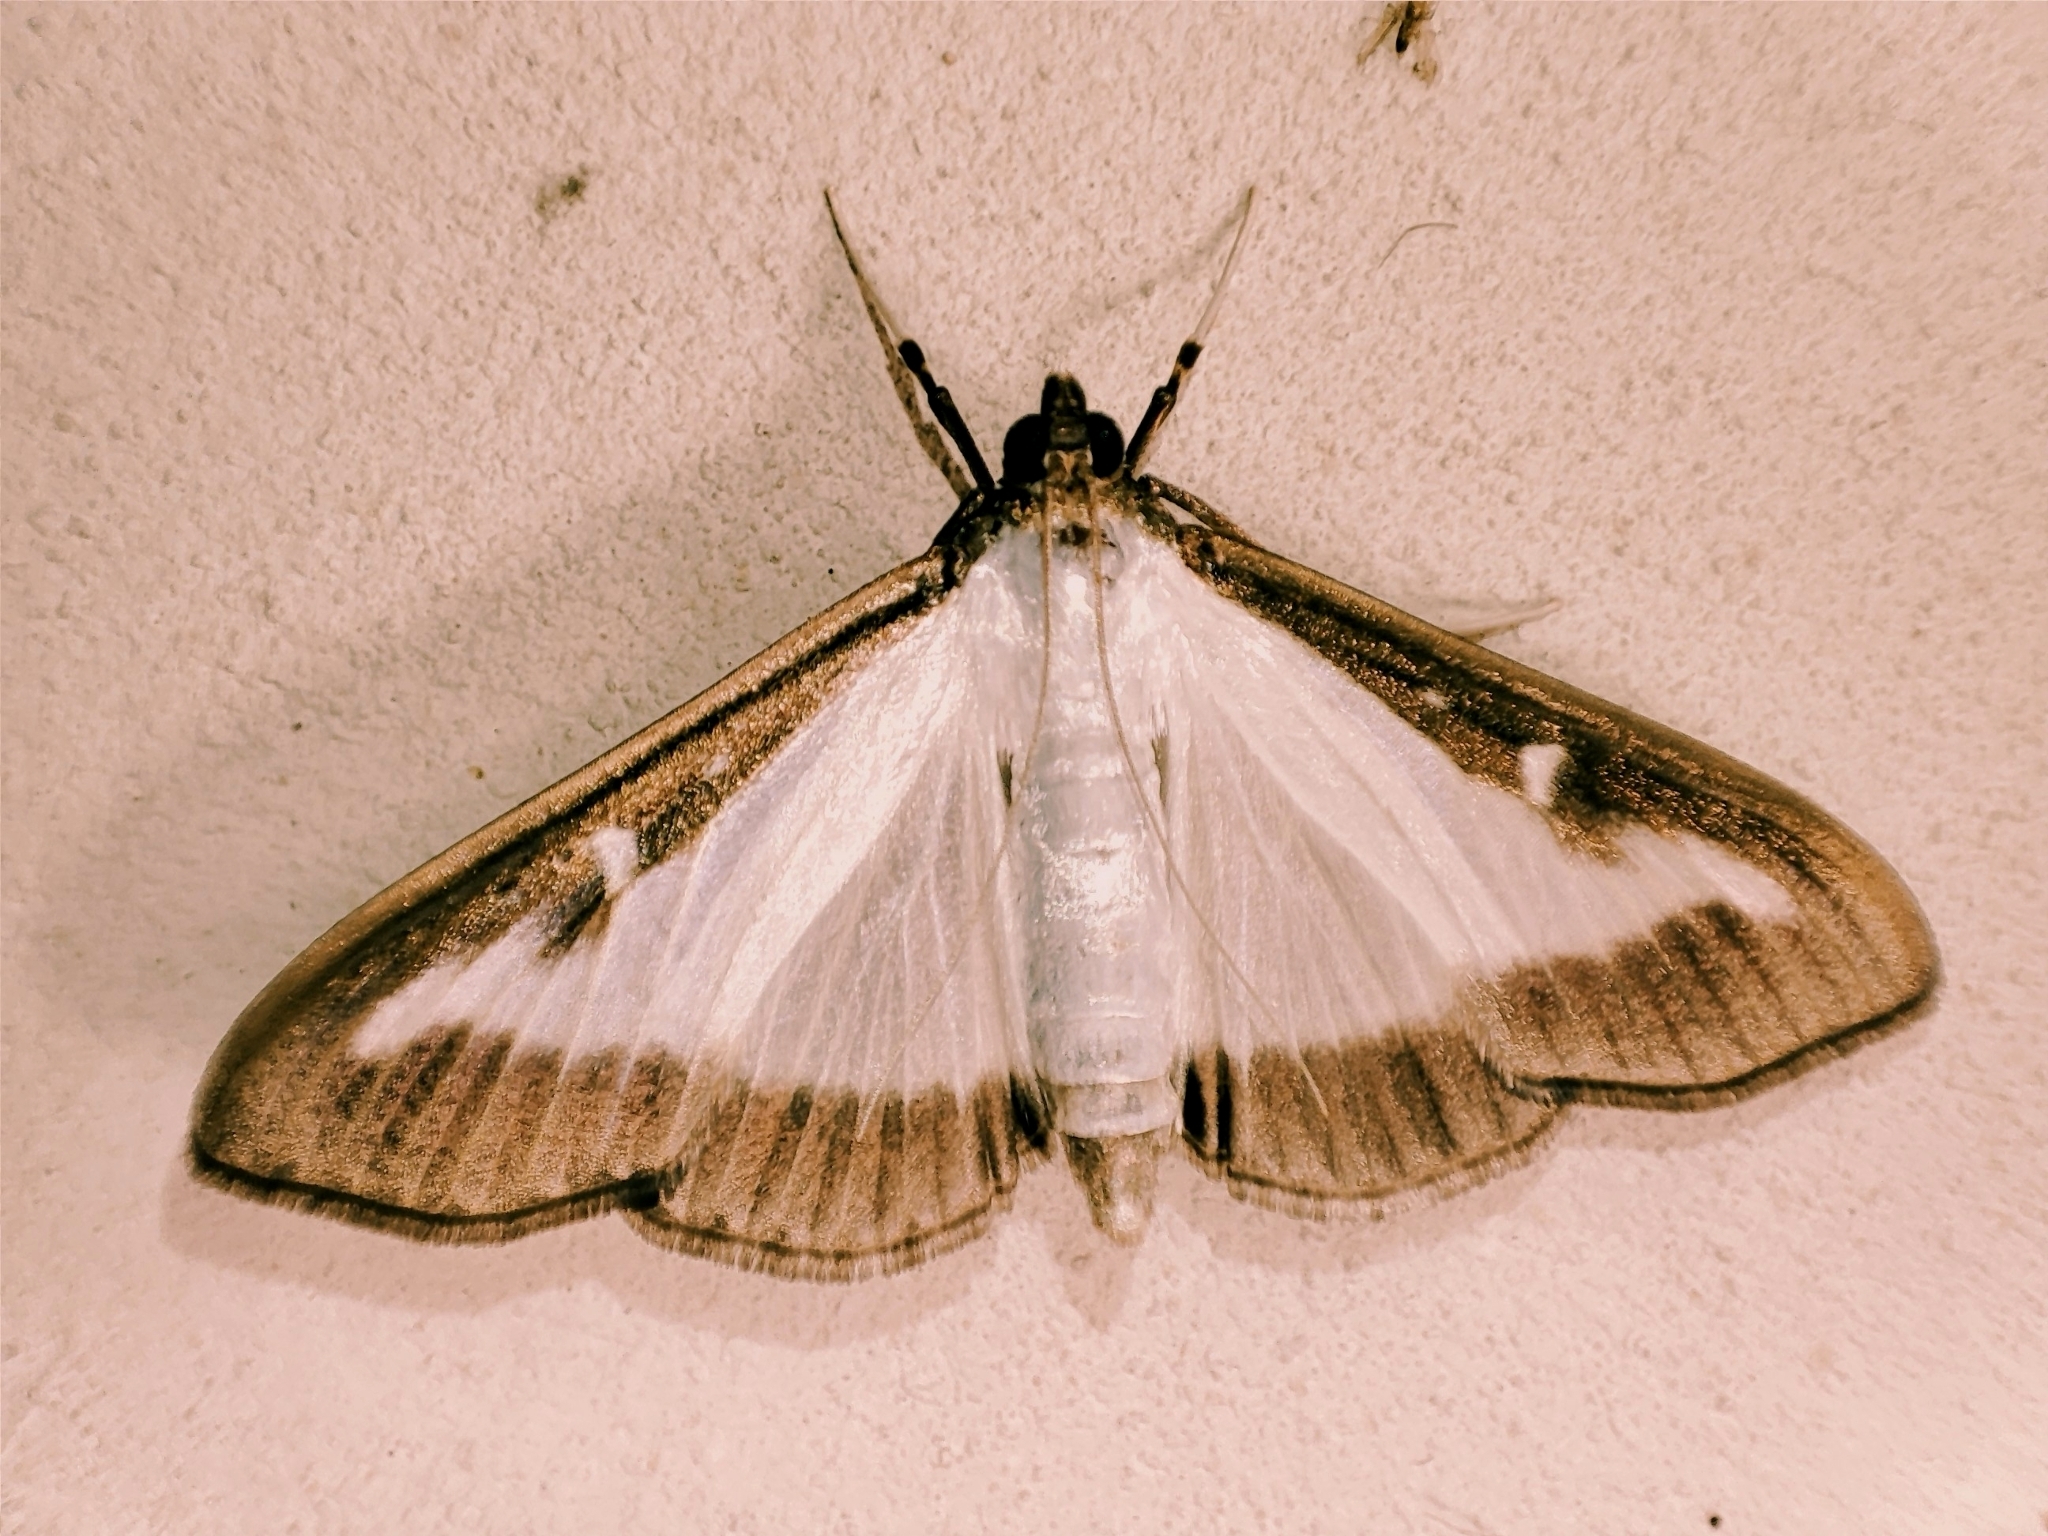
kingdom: Animalia
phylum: Arthropoda
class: Insecta
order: Lepidoptera
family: Crambidae
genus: Cydalima
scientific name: Cydalima perspectalis
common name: Box tree moth
